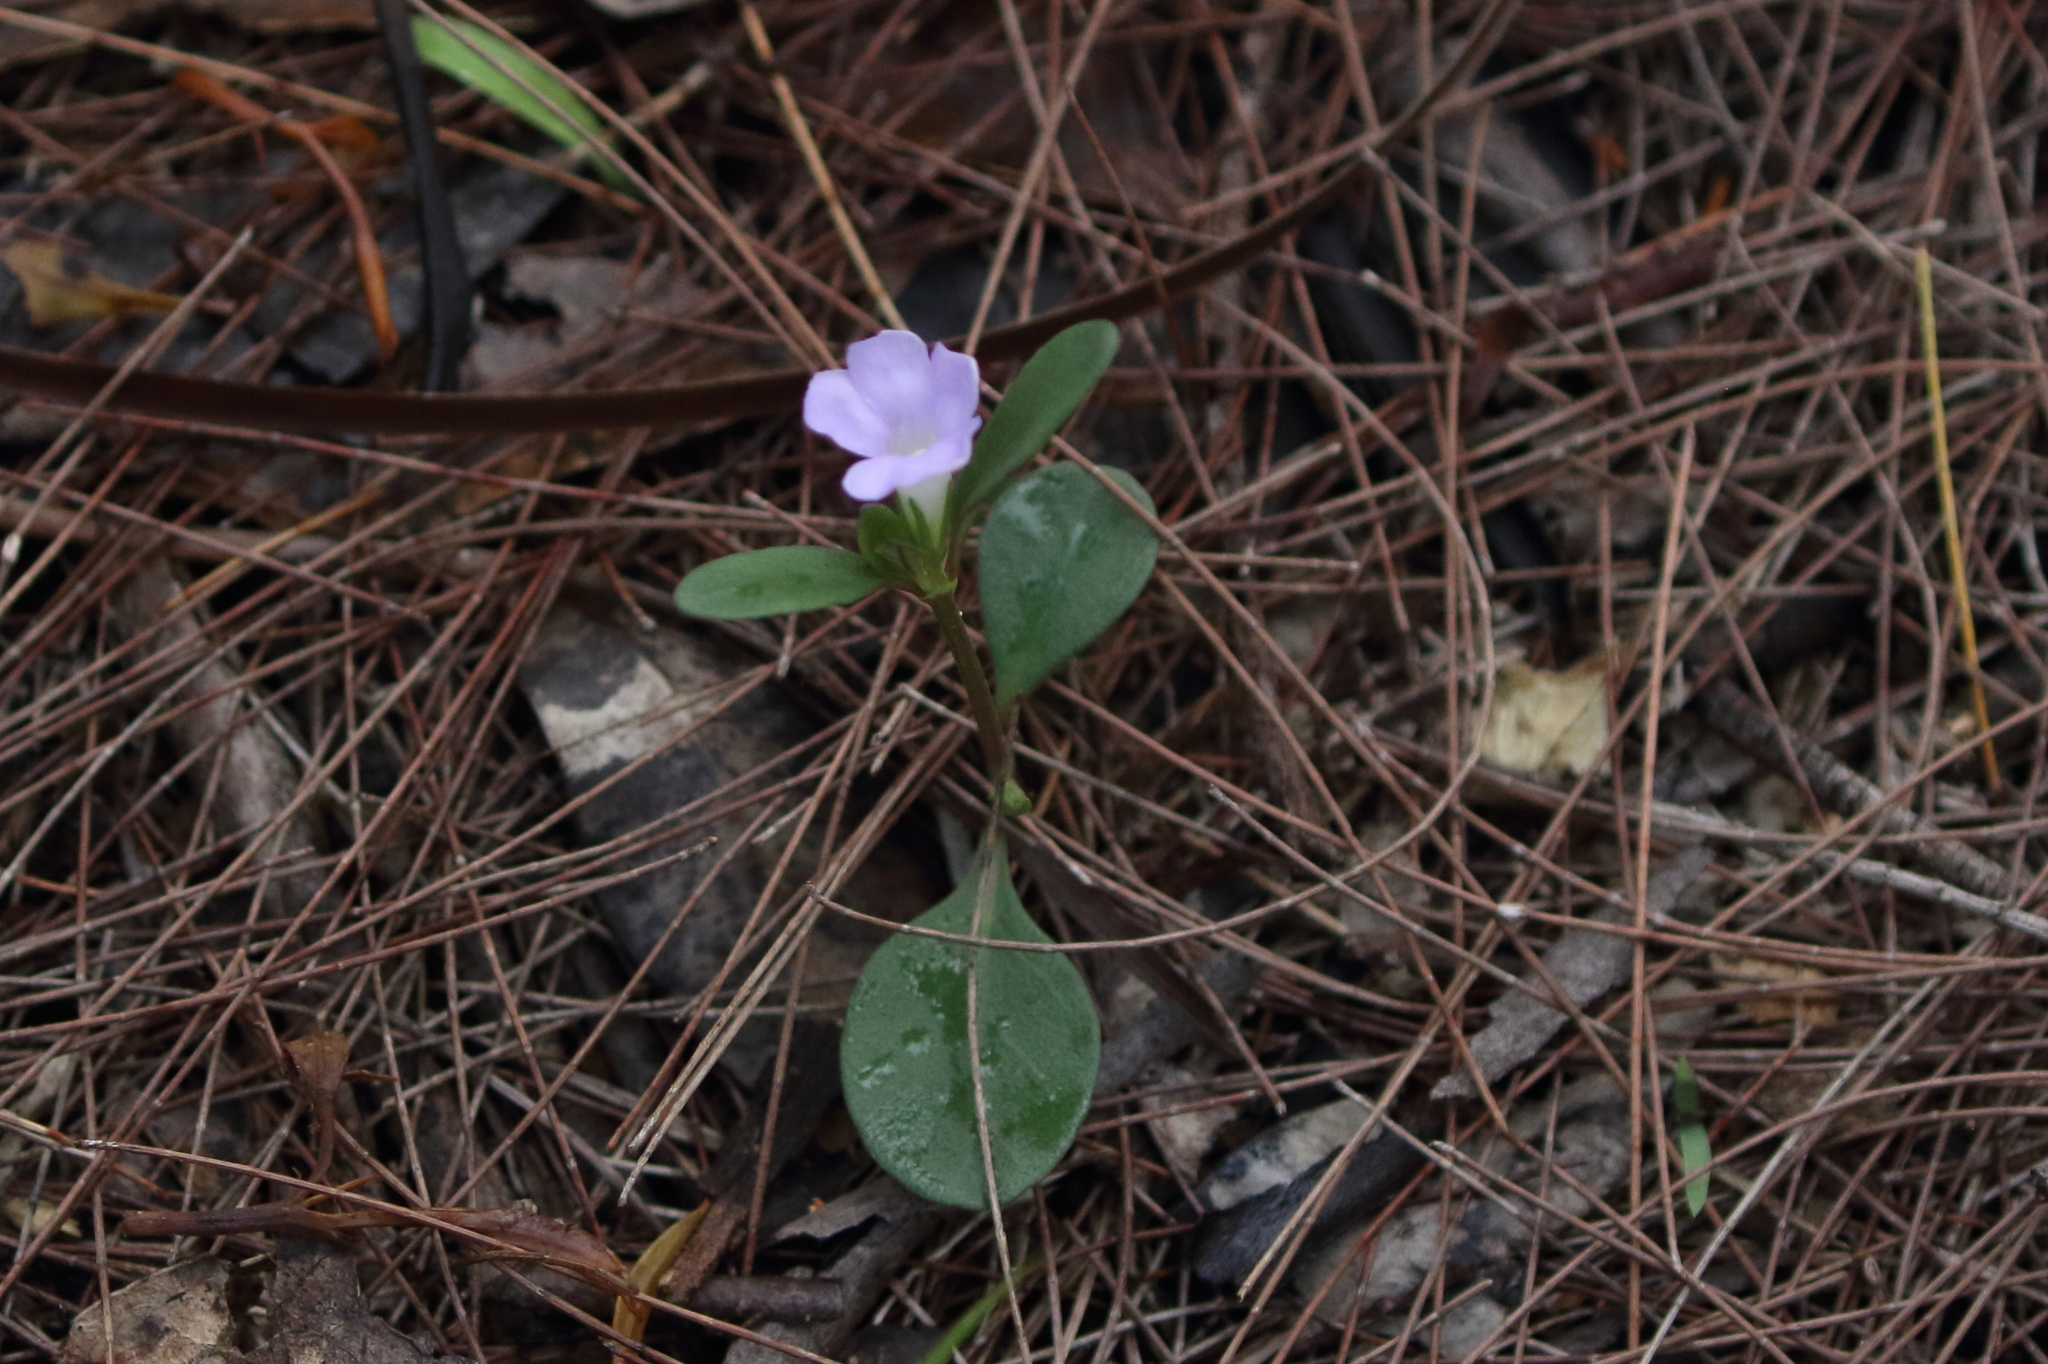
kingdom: Plantae
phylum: Tracheophyta
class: Magnoliopsida
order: Lamiales
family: Acanthaceae
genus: Brunoniella
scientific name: Brunoniella australis
